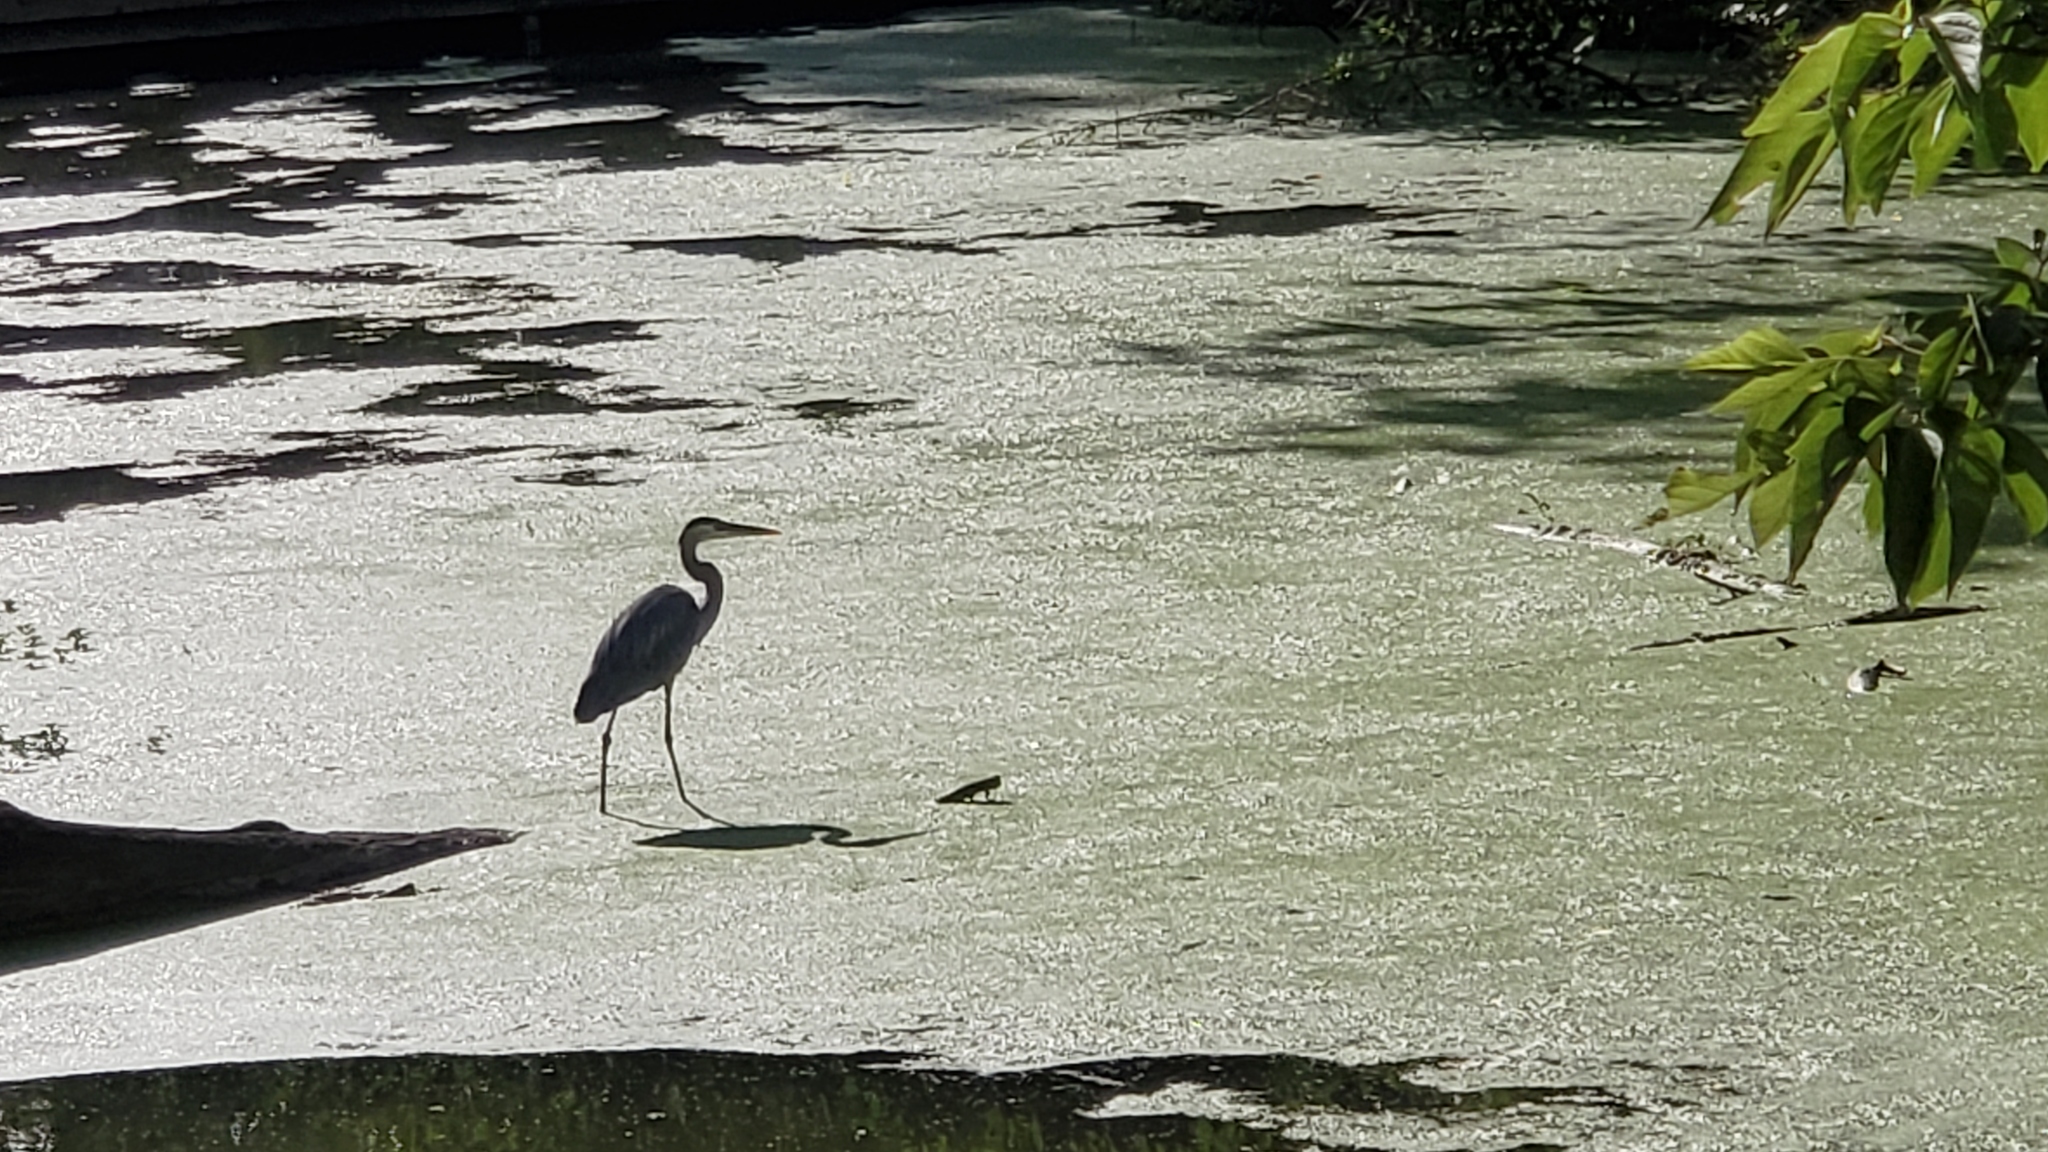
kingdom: Animalia
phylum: Chordata
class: Aves
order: Pelecaniformes
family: Ardeidae
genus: Ardea
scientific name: Ardea herodias
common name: Great blue heron
